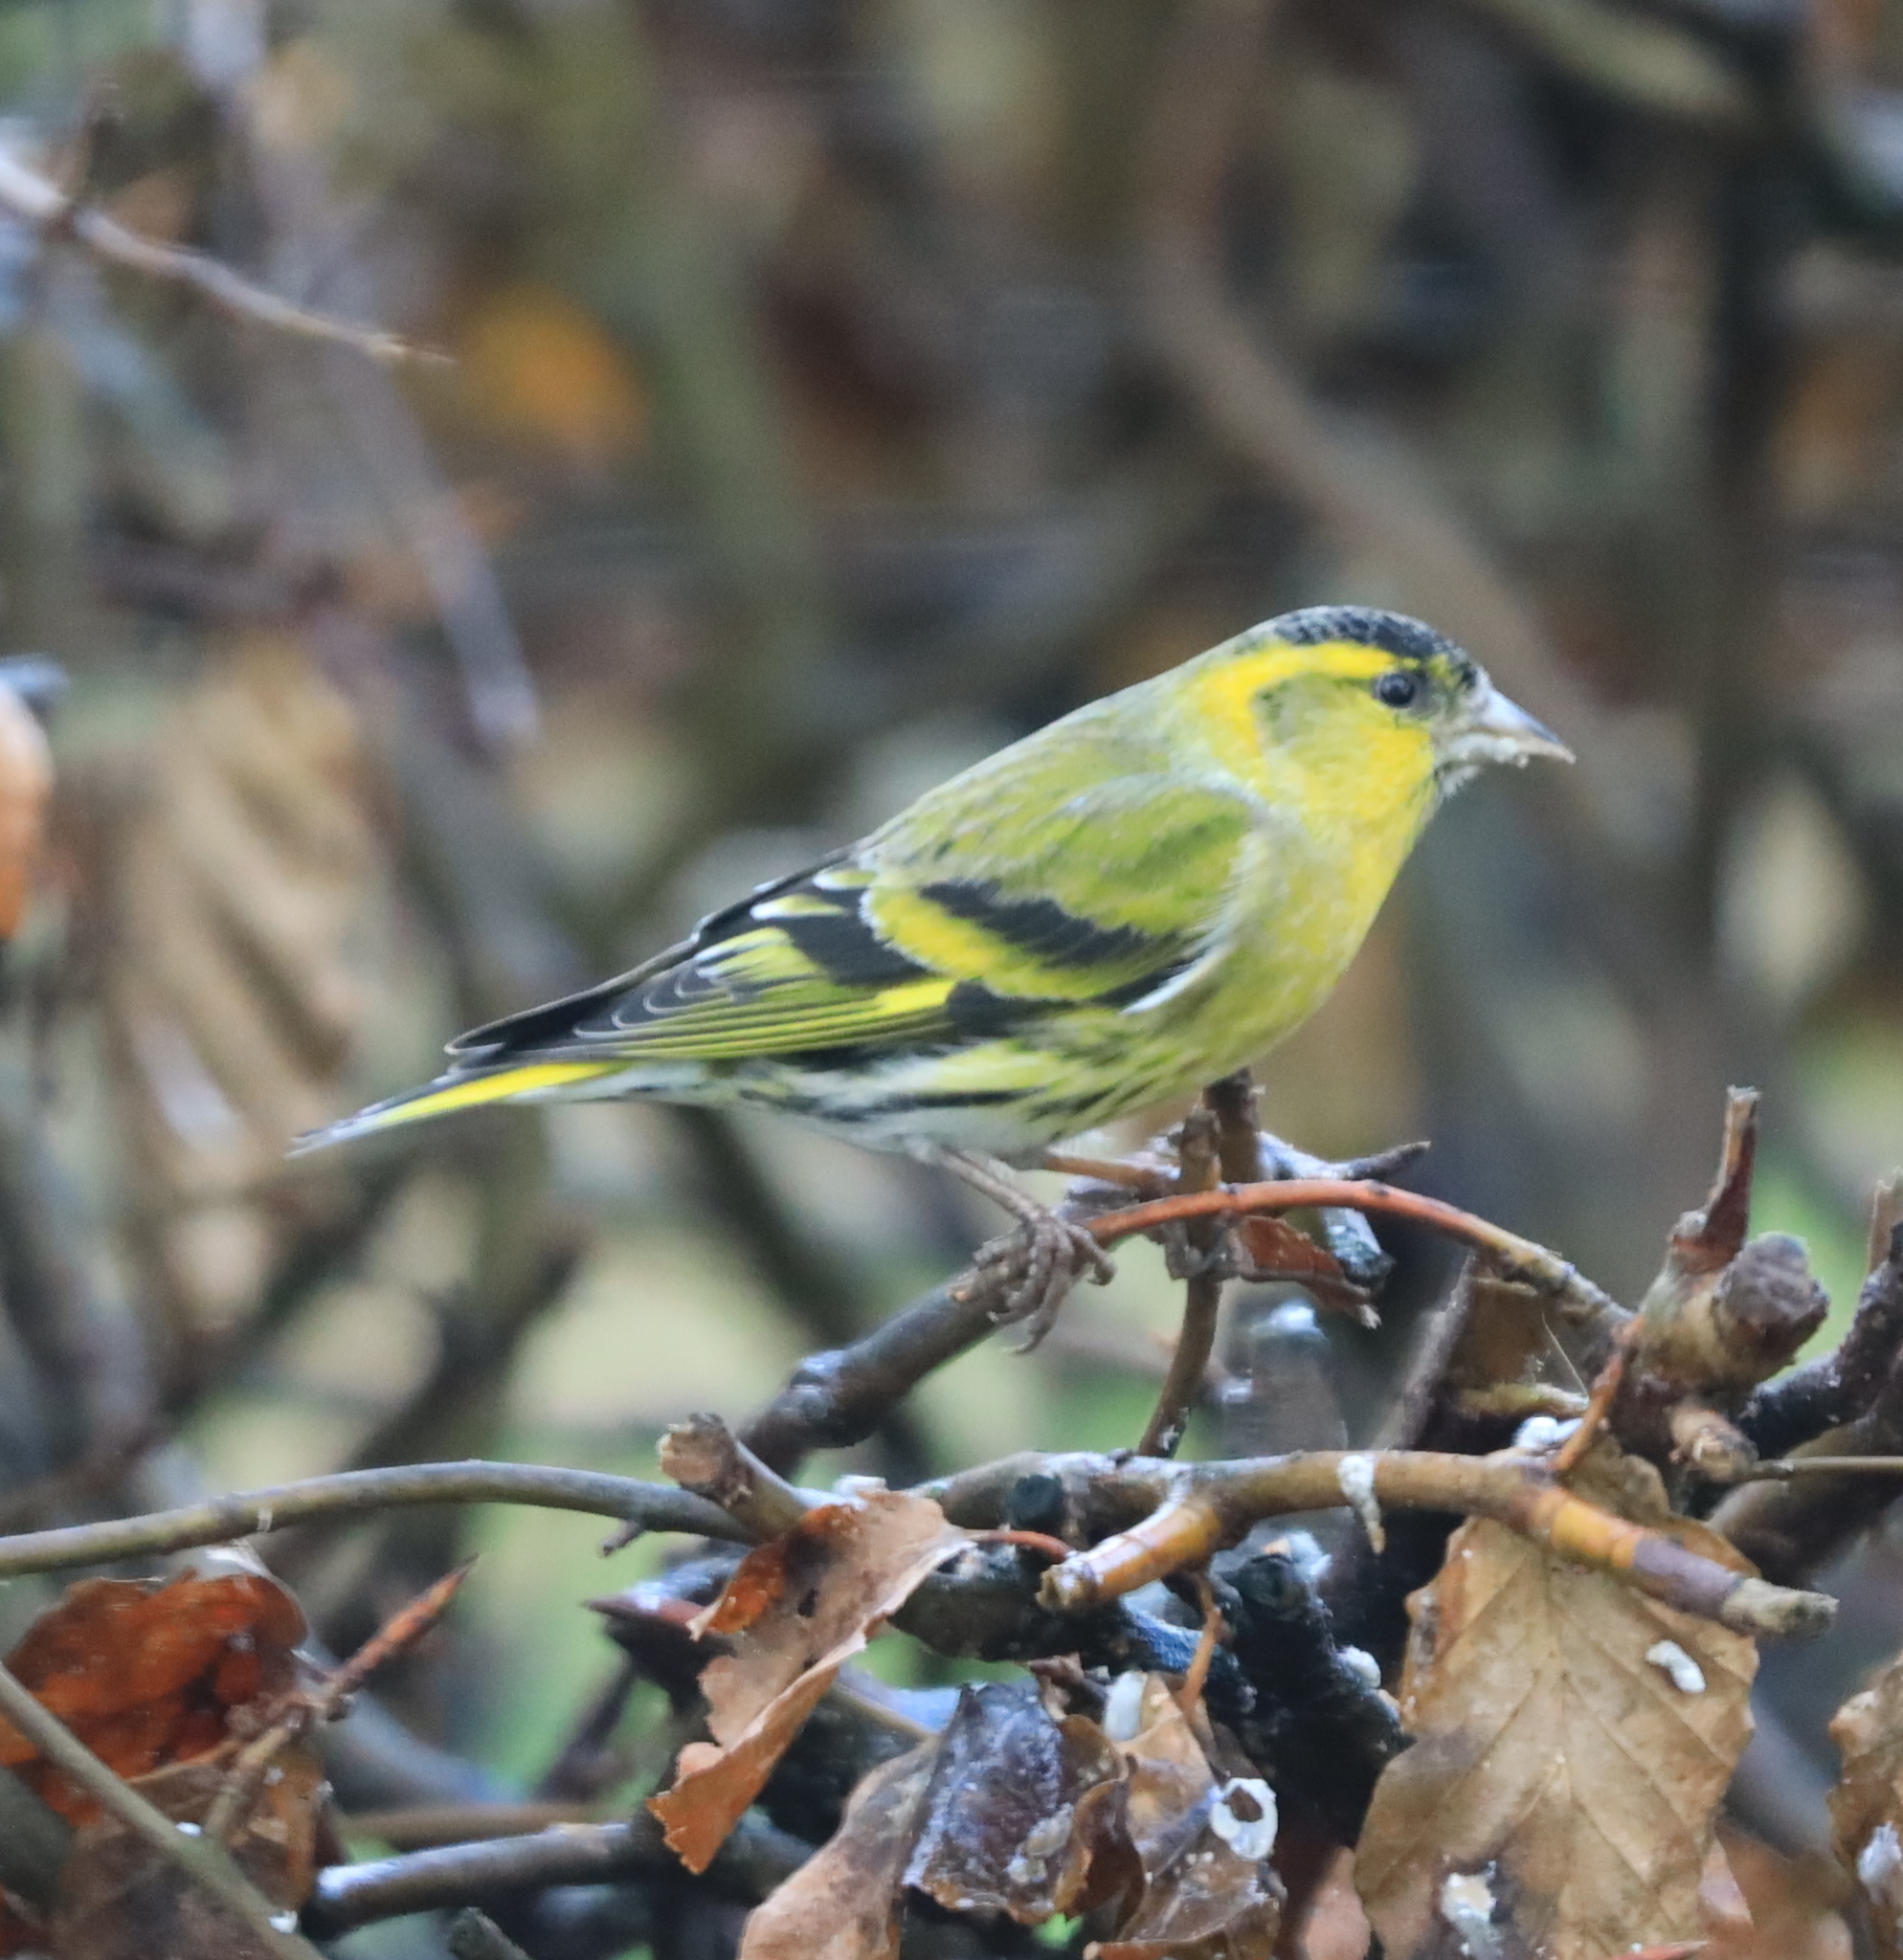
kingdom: Animalia
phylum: Chordata
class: Aves
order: Passeriformes
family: Fringillidae
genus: Spinus
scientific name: Spinus spinus
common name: Eurasian siskin
